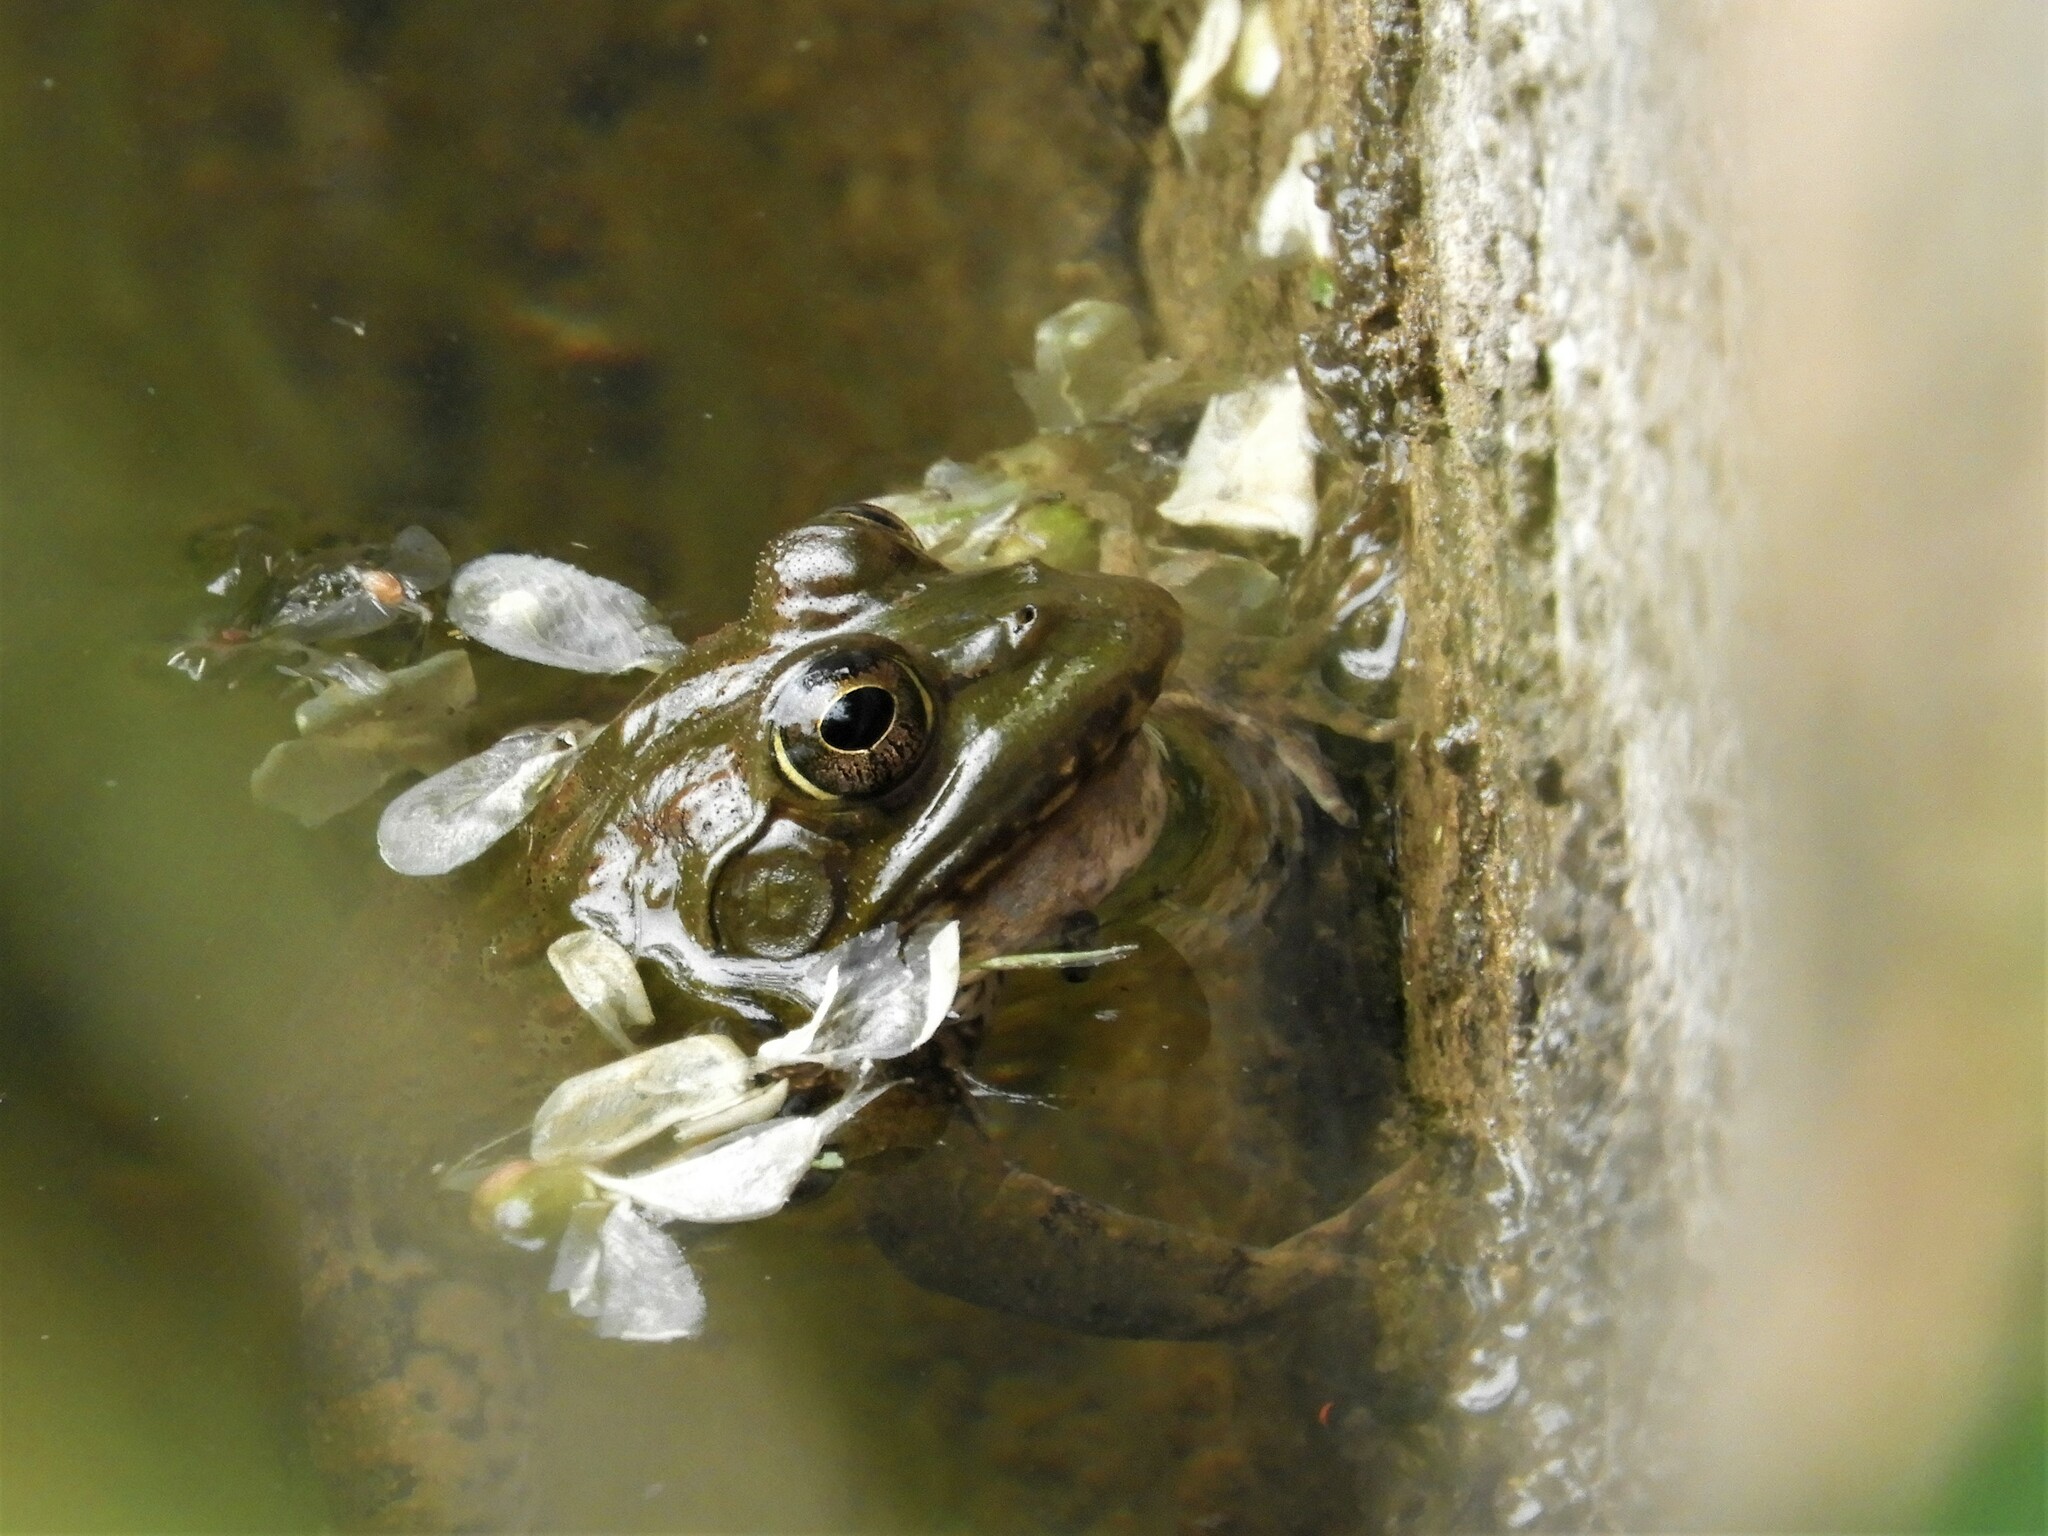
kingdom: Animalia
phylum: Chordata
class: Amphibia
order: Anura
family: Pyxicephalidae
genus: Amietia
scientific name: Amietia poyntoni
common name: Poynton's river frog
